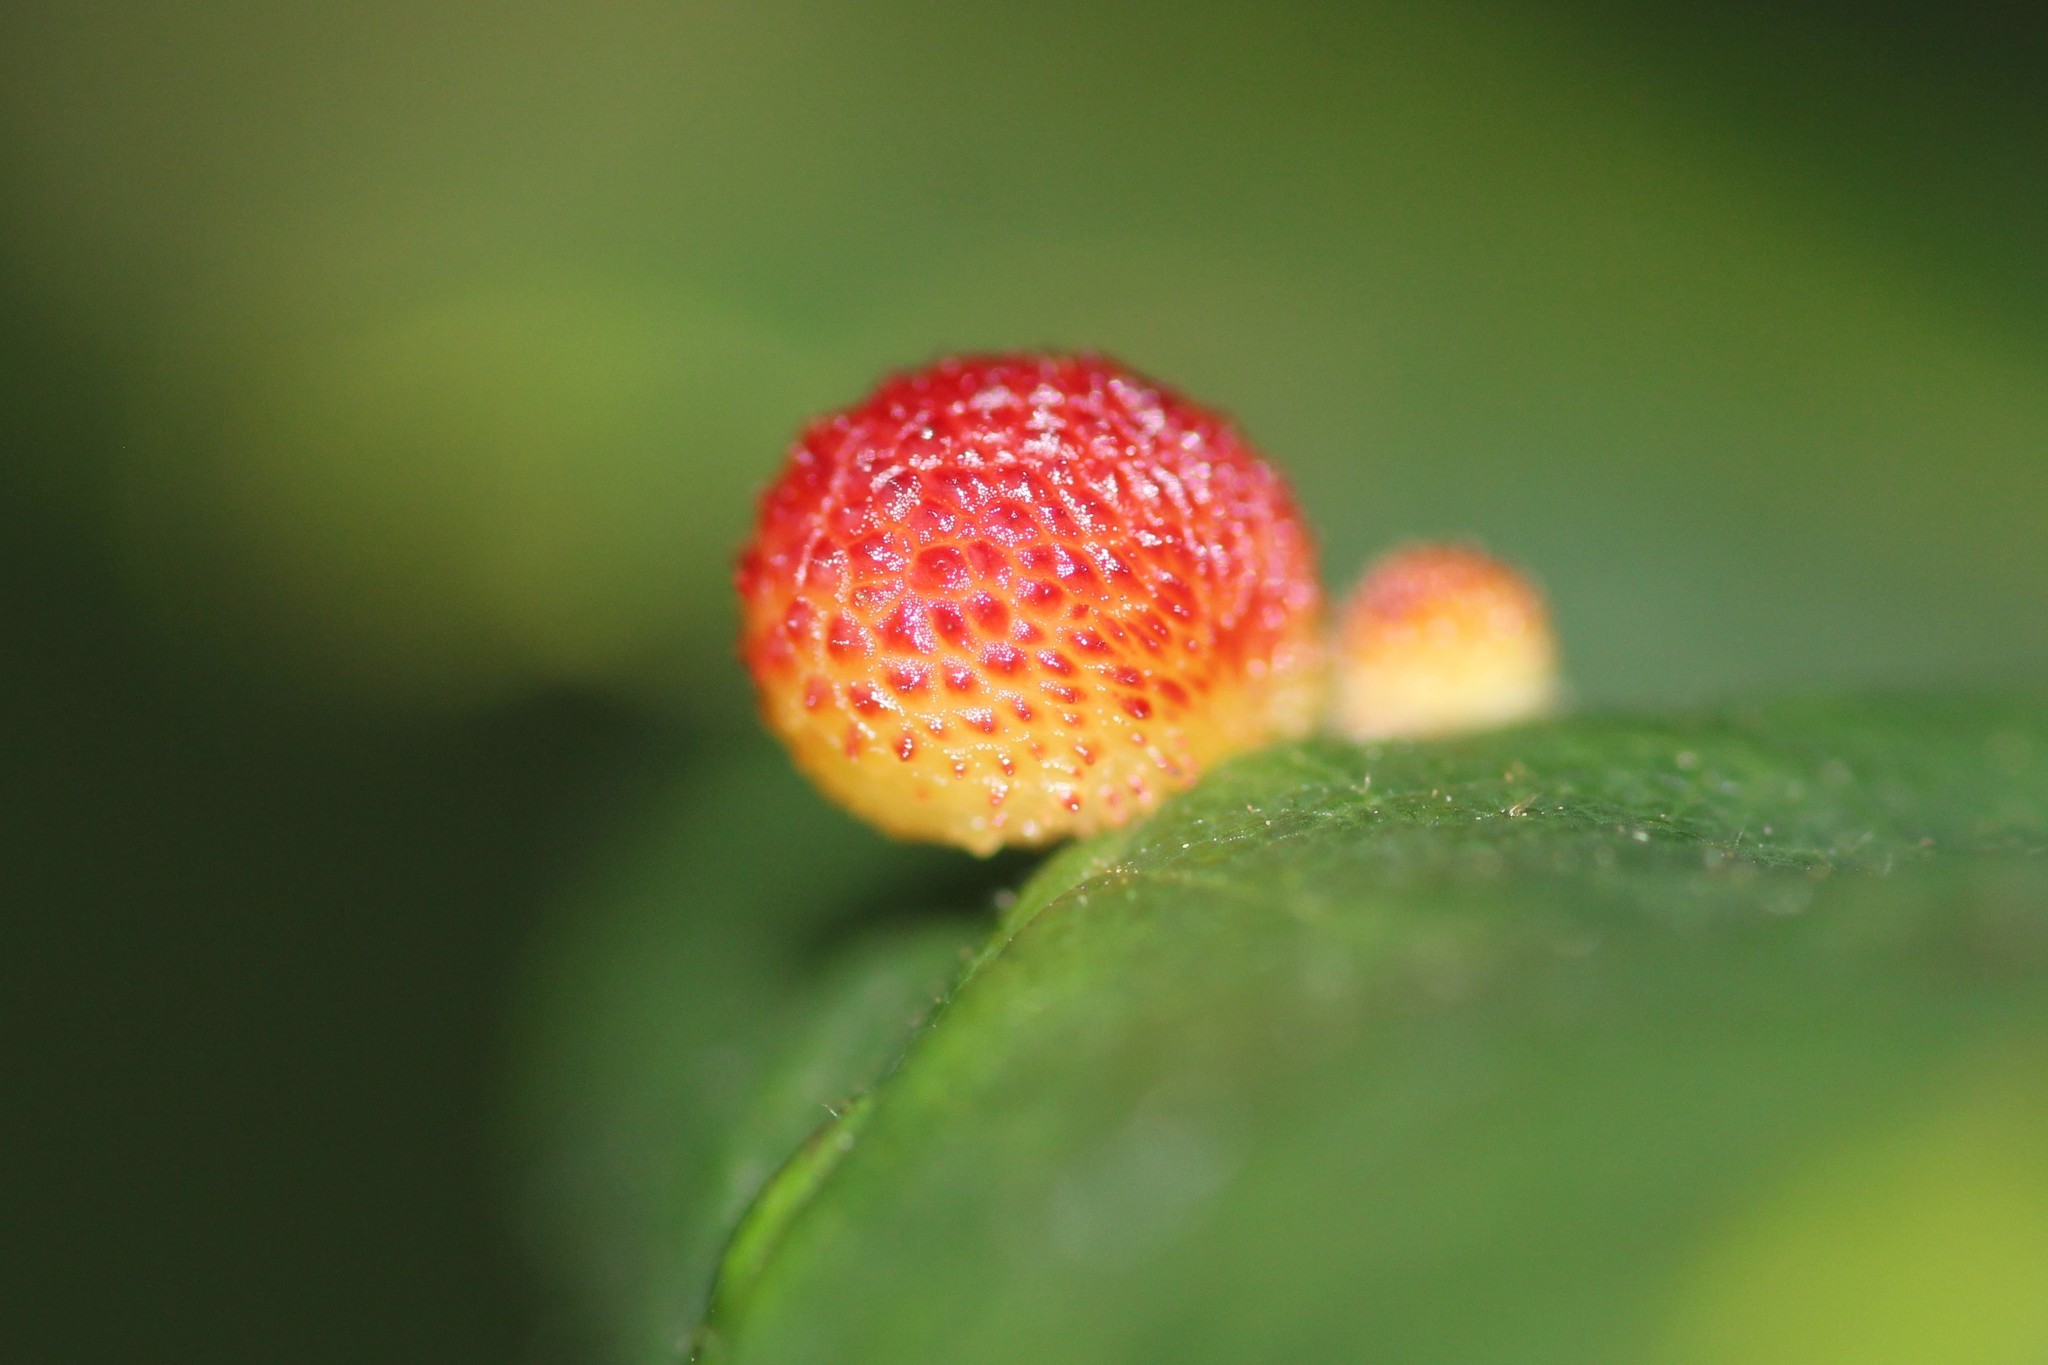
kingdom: Animalia
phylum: Arthropoda
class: Insecta
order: Hymenoptera
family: Cynipidae
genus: Acraspis
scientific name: Acraspis quercushirta
